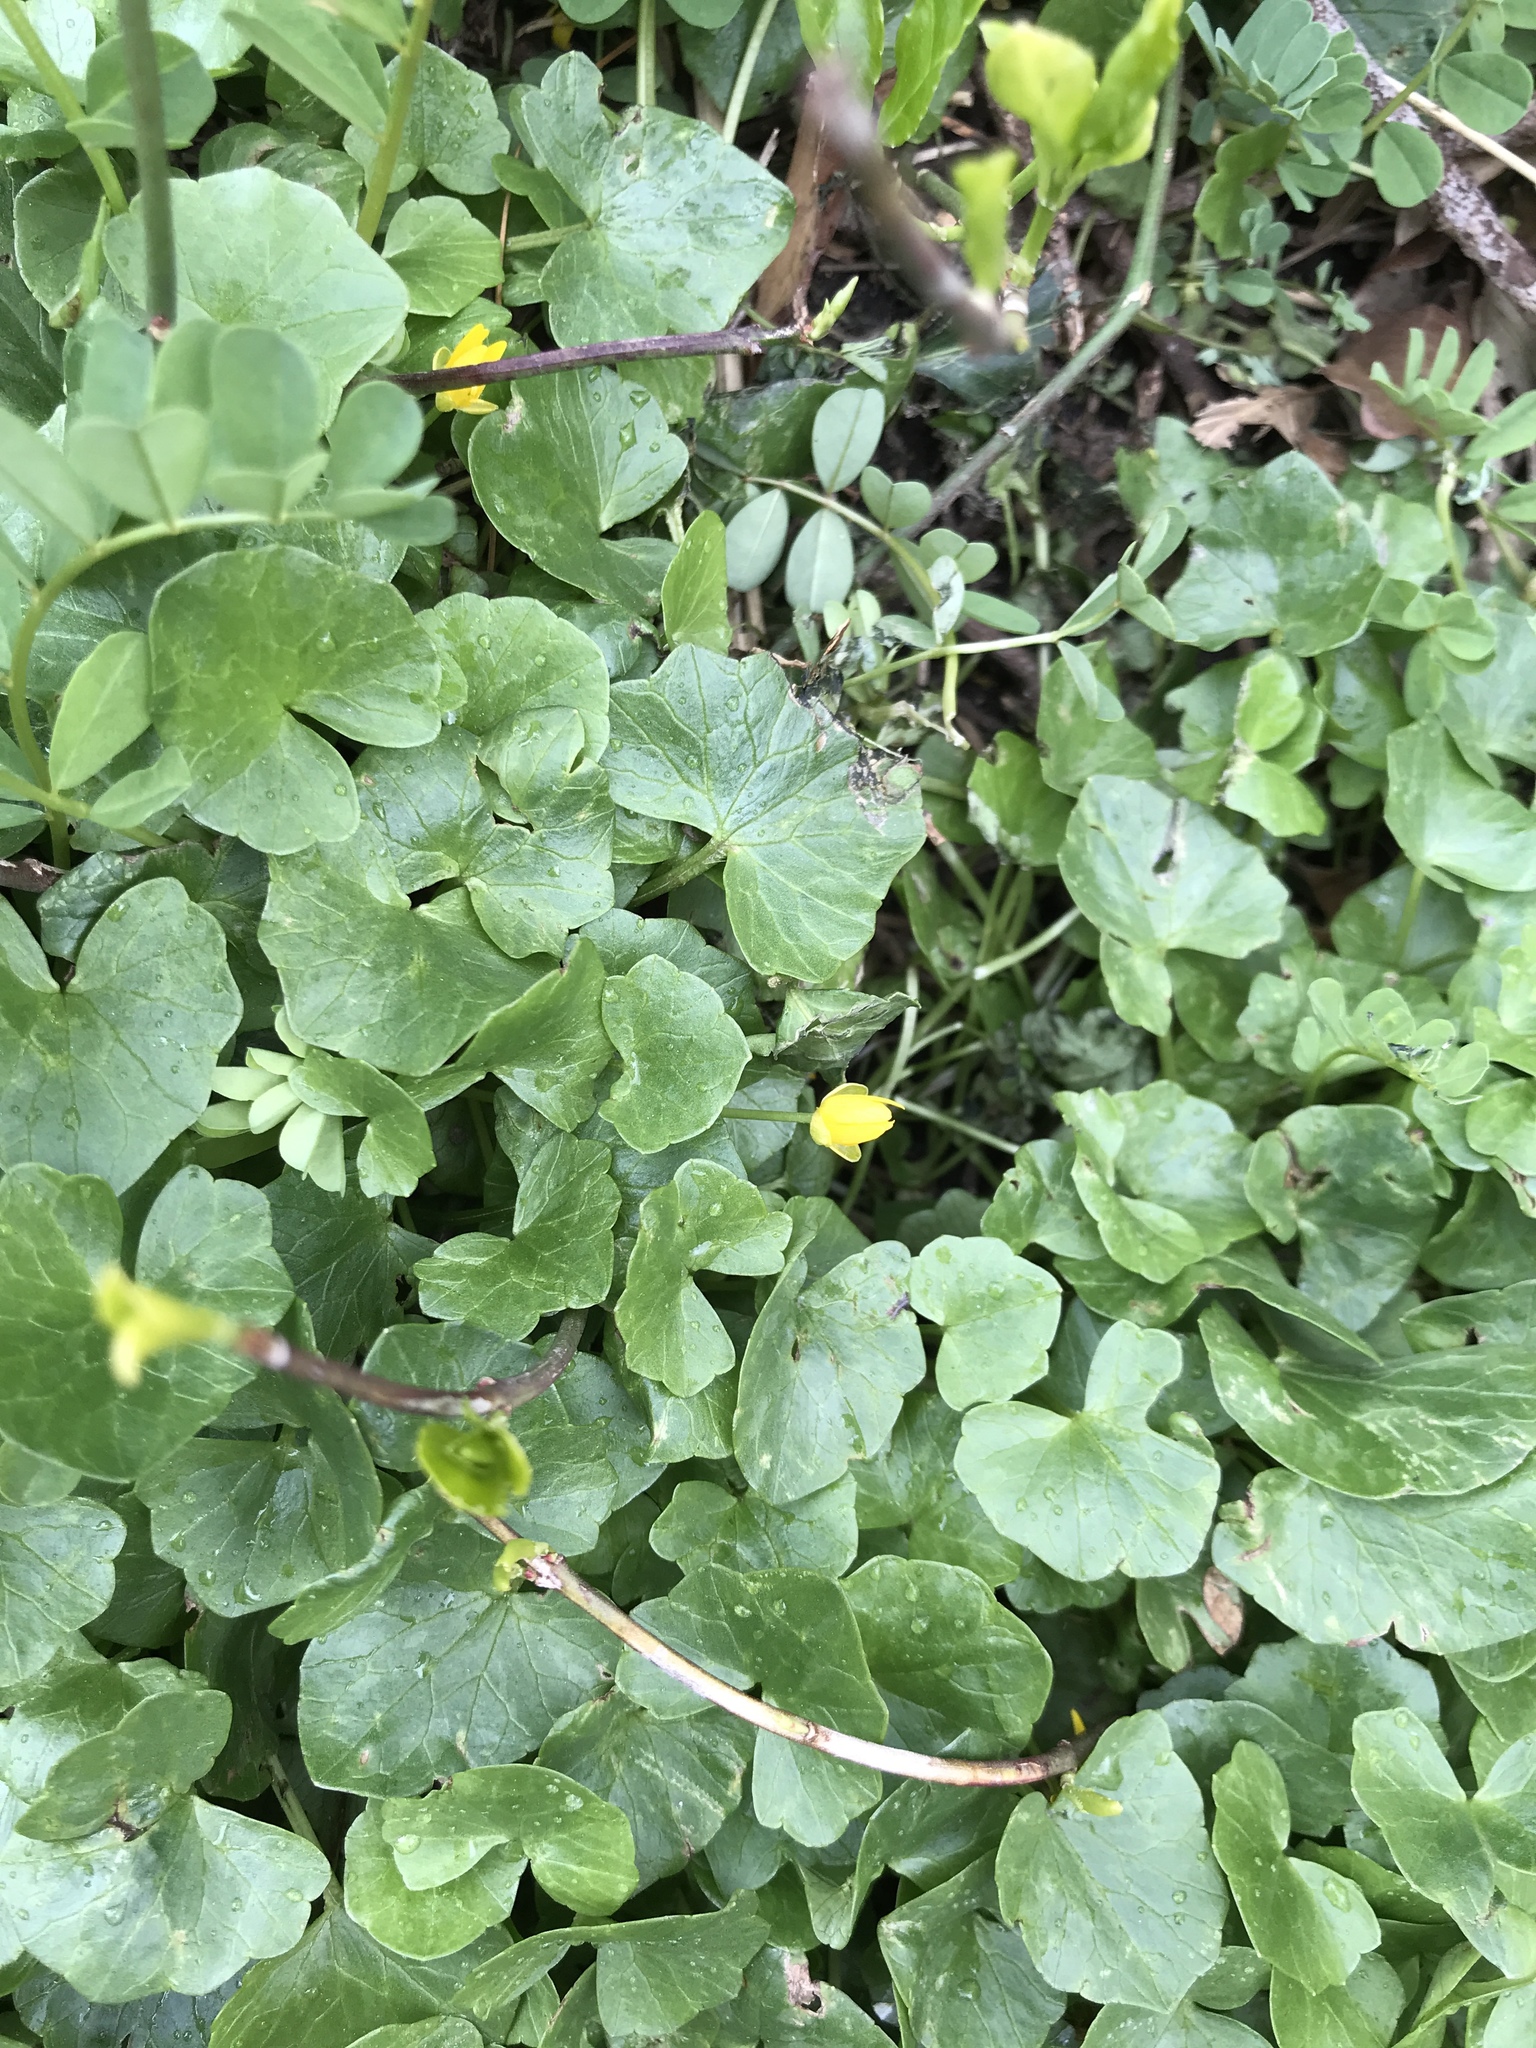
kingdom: Plantae
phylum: Tracheophyta
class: Magnoliopsida
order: Ranunculales
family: Ranunculaceae
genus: Ficaria
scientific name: Ficaria verna
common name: Lesser celandine
